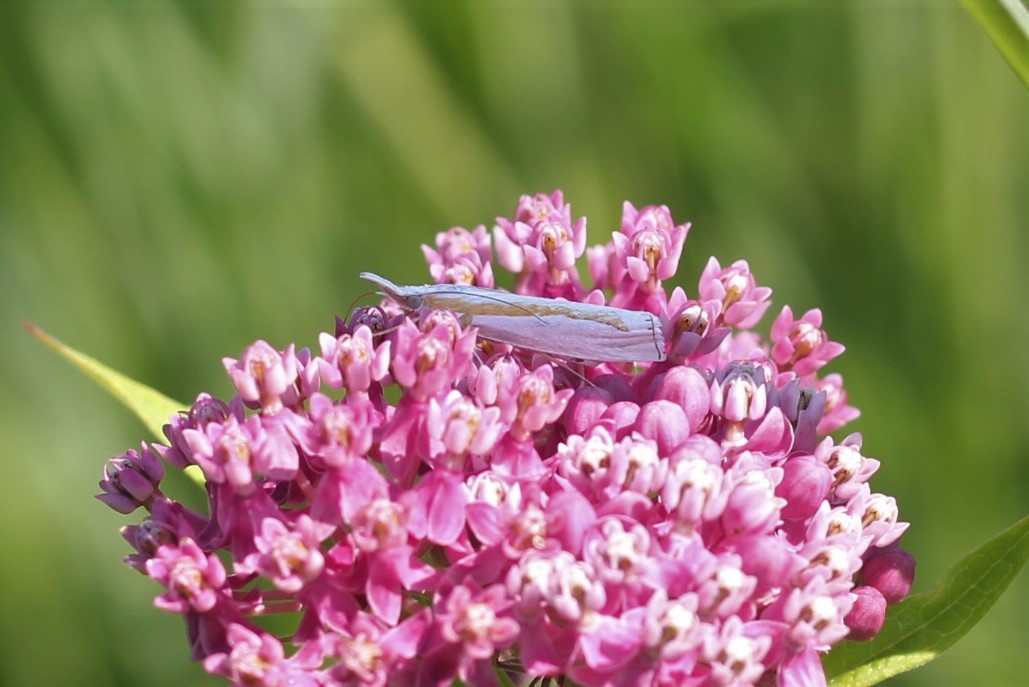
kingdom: Animalia
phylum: Arthropoda
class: Insecta
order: Lepidoptera
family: Crambidae
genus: Crambus
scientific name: Crambus girardellus
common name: Girard's grass-veneer
